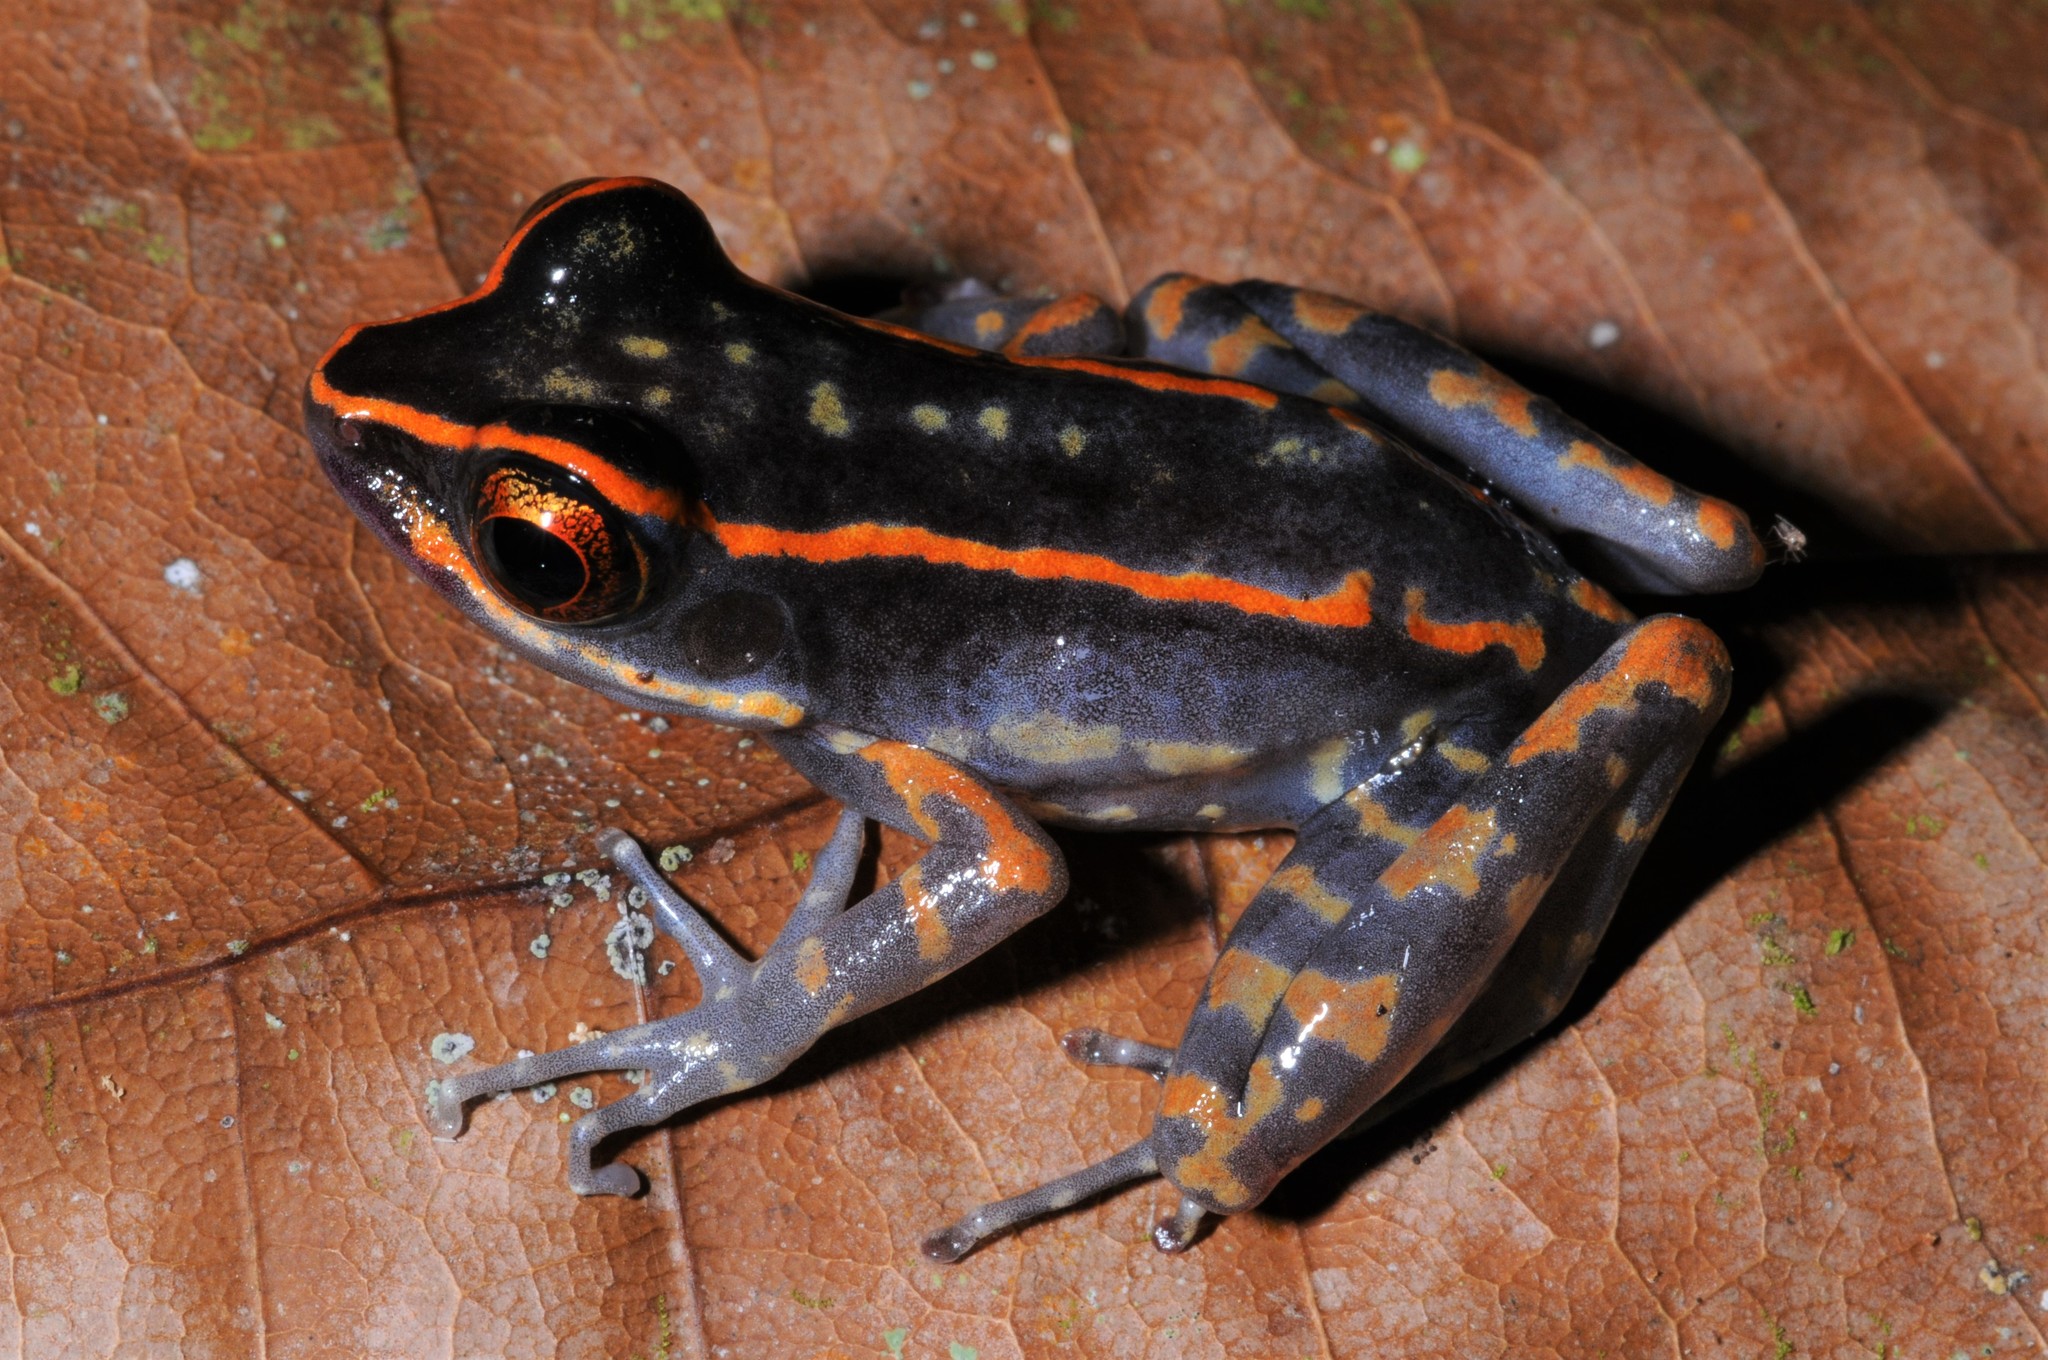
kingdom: Animalia
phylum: Chordata
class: Amphibia
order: Anura
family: Ranidae
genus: Pulchrana
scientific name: Pulchrana signata
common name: Variable-backed frog
